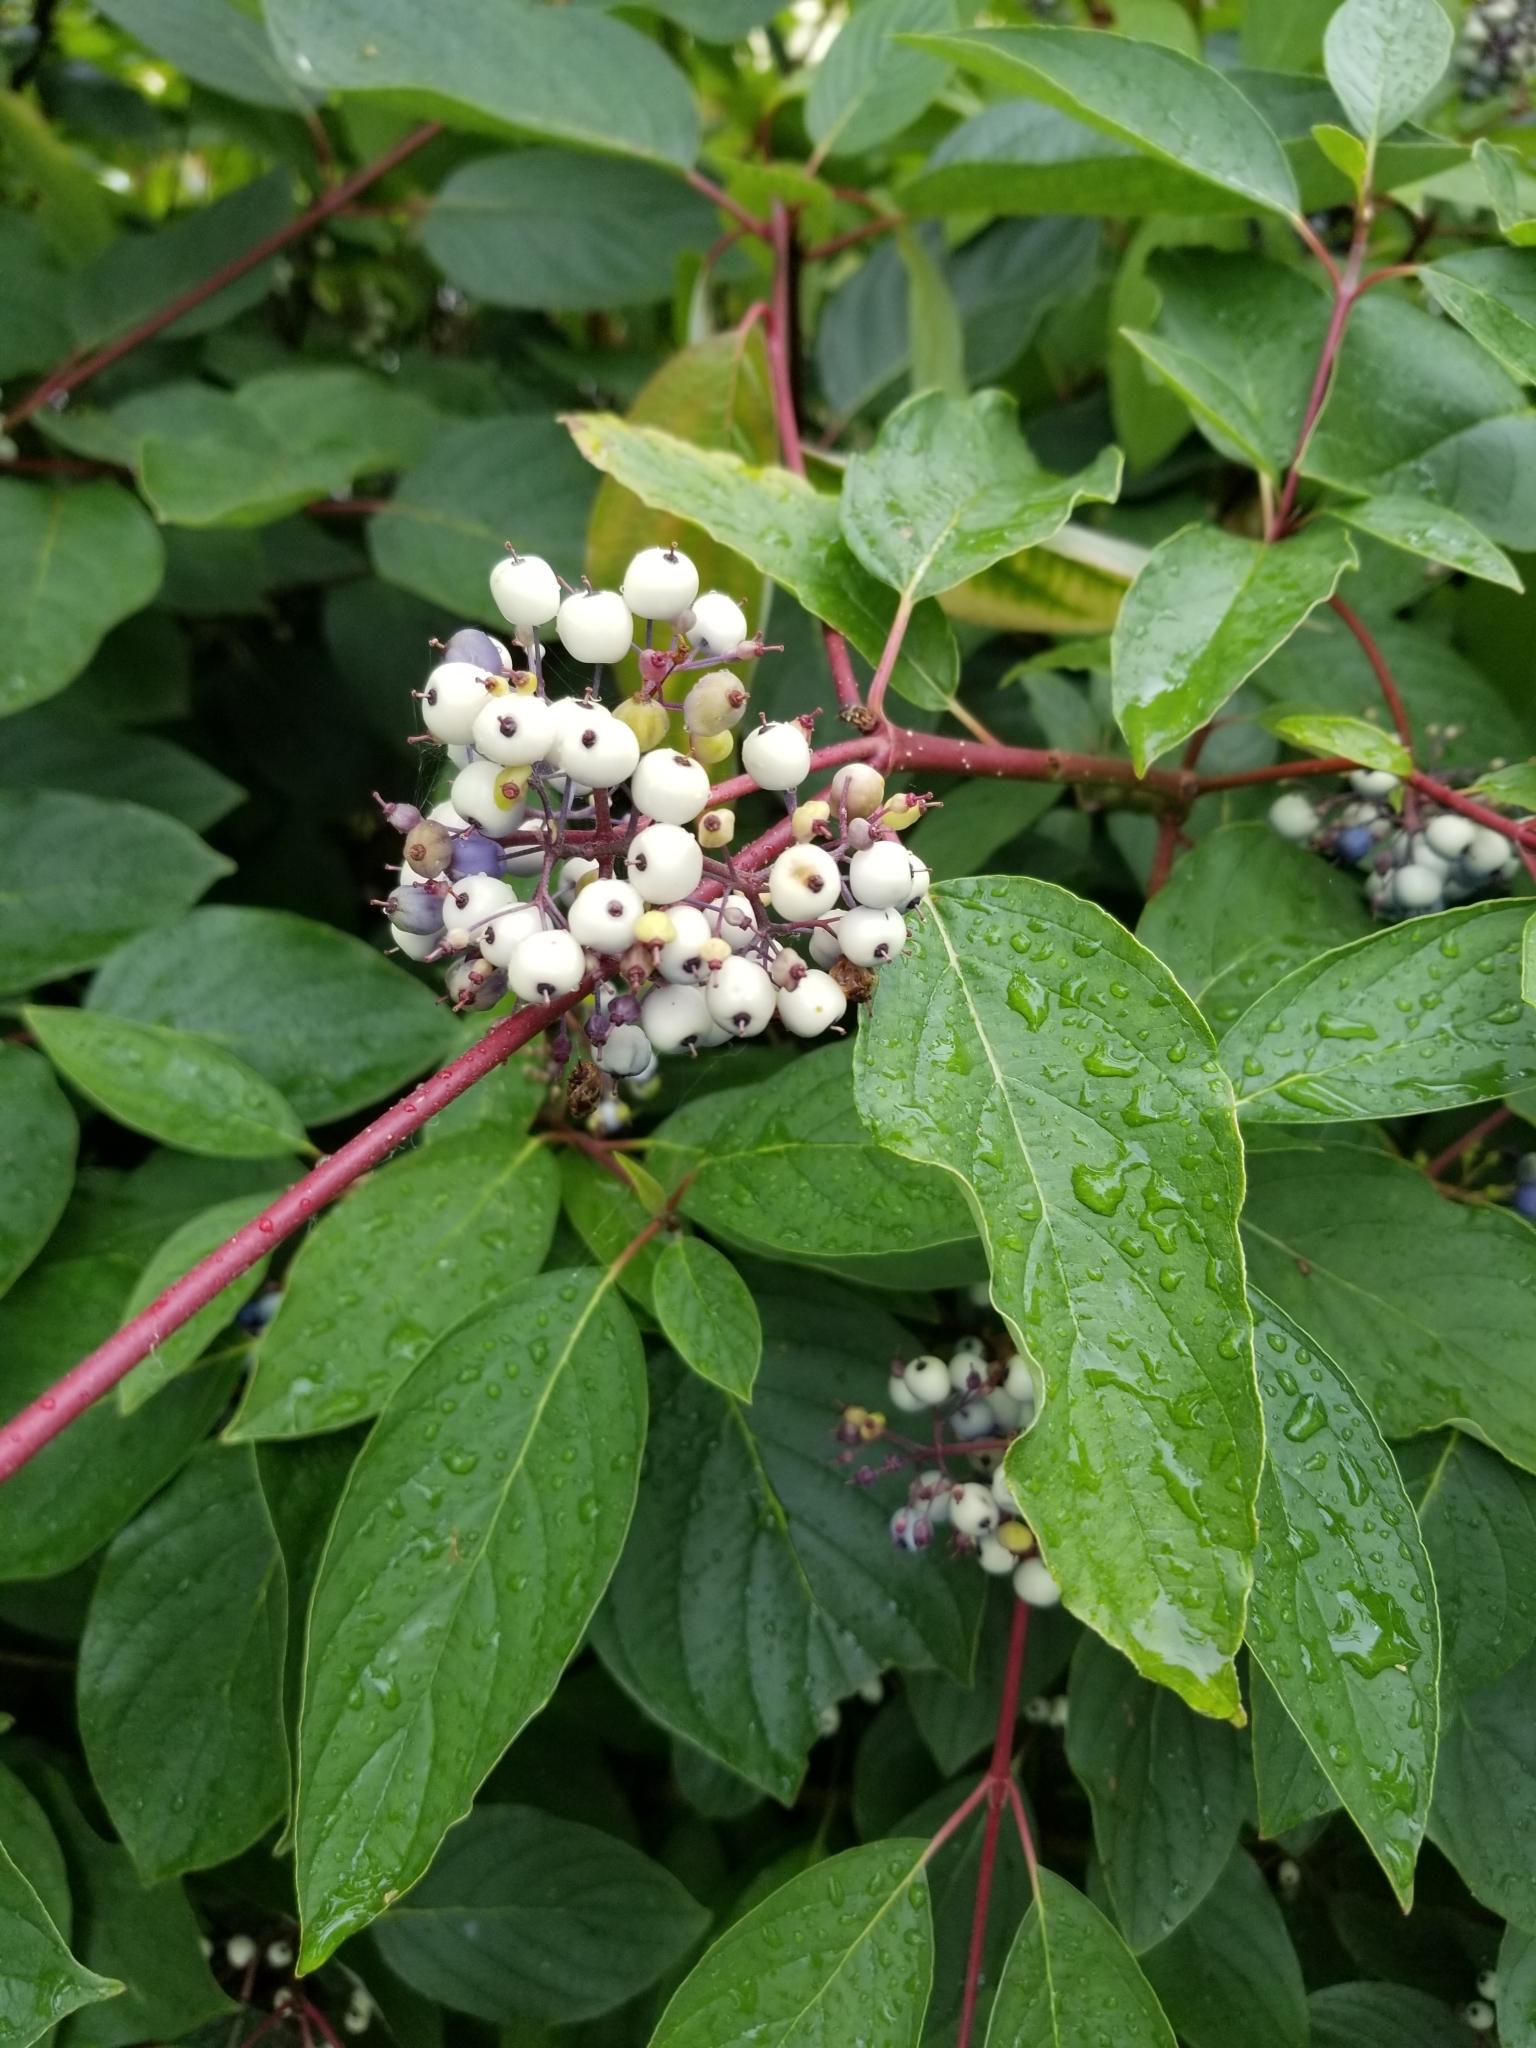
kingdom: Plantae
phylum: Tracheophyta
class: Magnoliopsida
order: Cornales
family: Cornaceae
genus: Cornus
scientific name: Cornus sericea
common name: Red-osier dogwood
